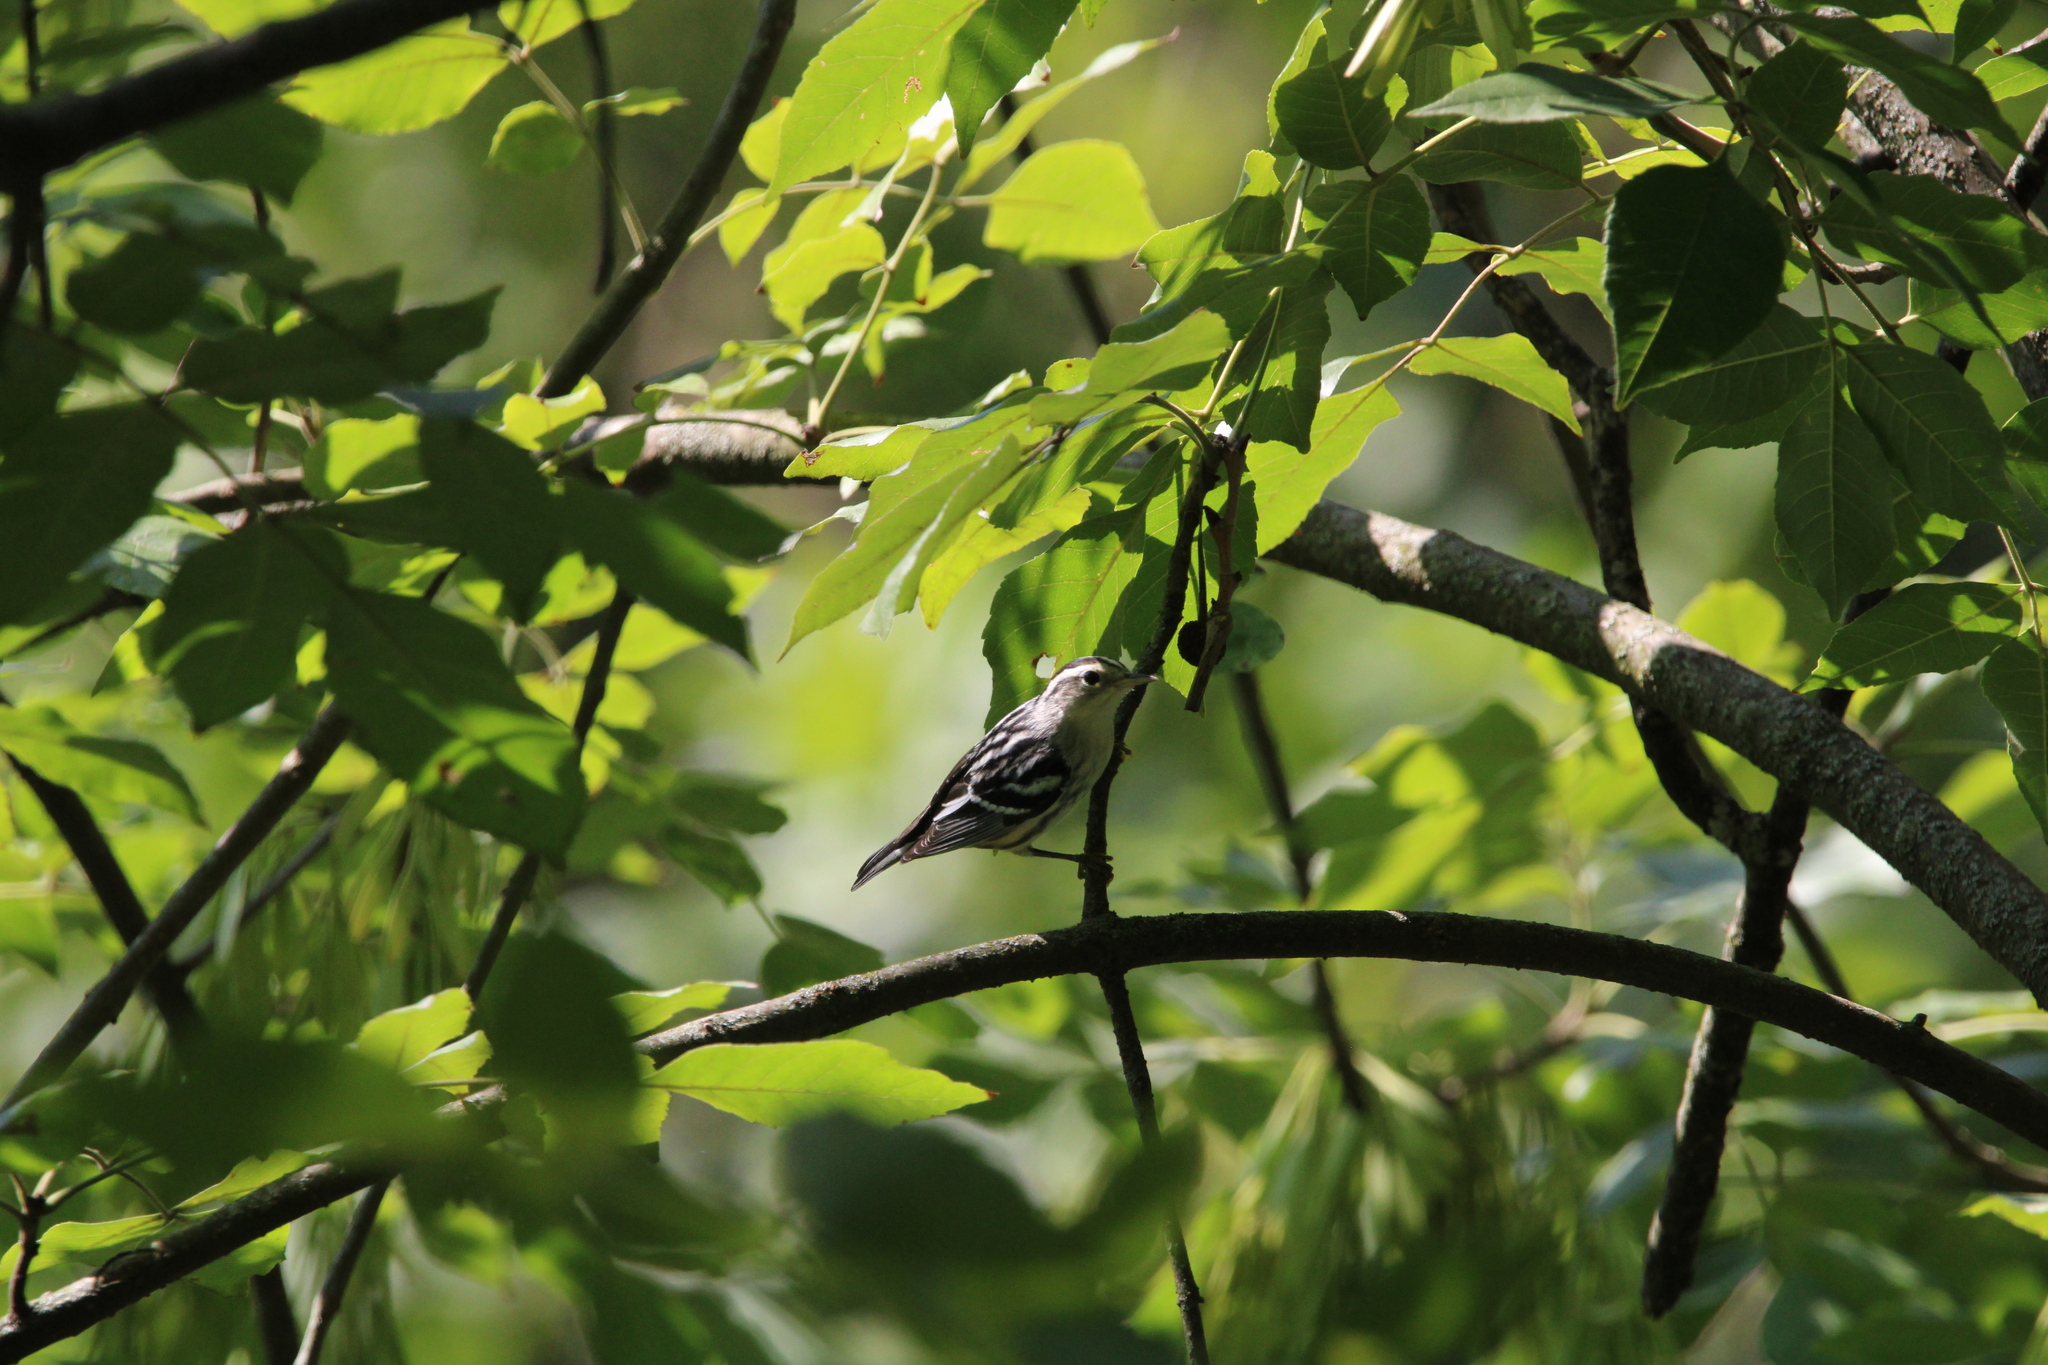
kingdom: Animalia
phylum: Chordata
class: Aves
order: Passeriformes
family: Parulidae
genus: Mniotilta
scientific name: Mniotilta varia
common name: Black-and-white warbler
